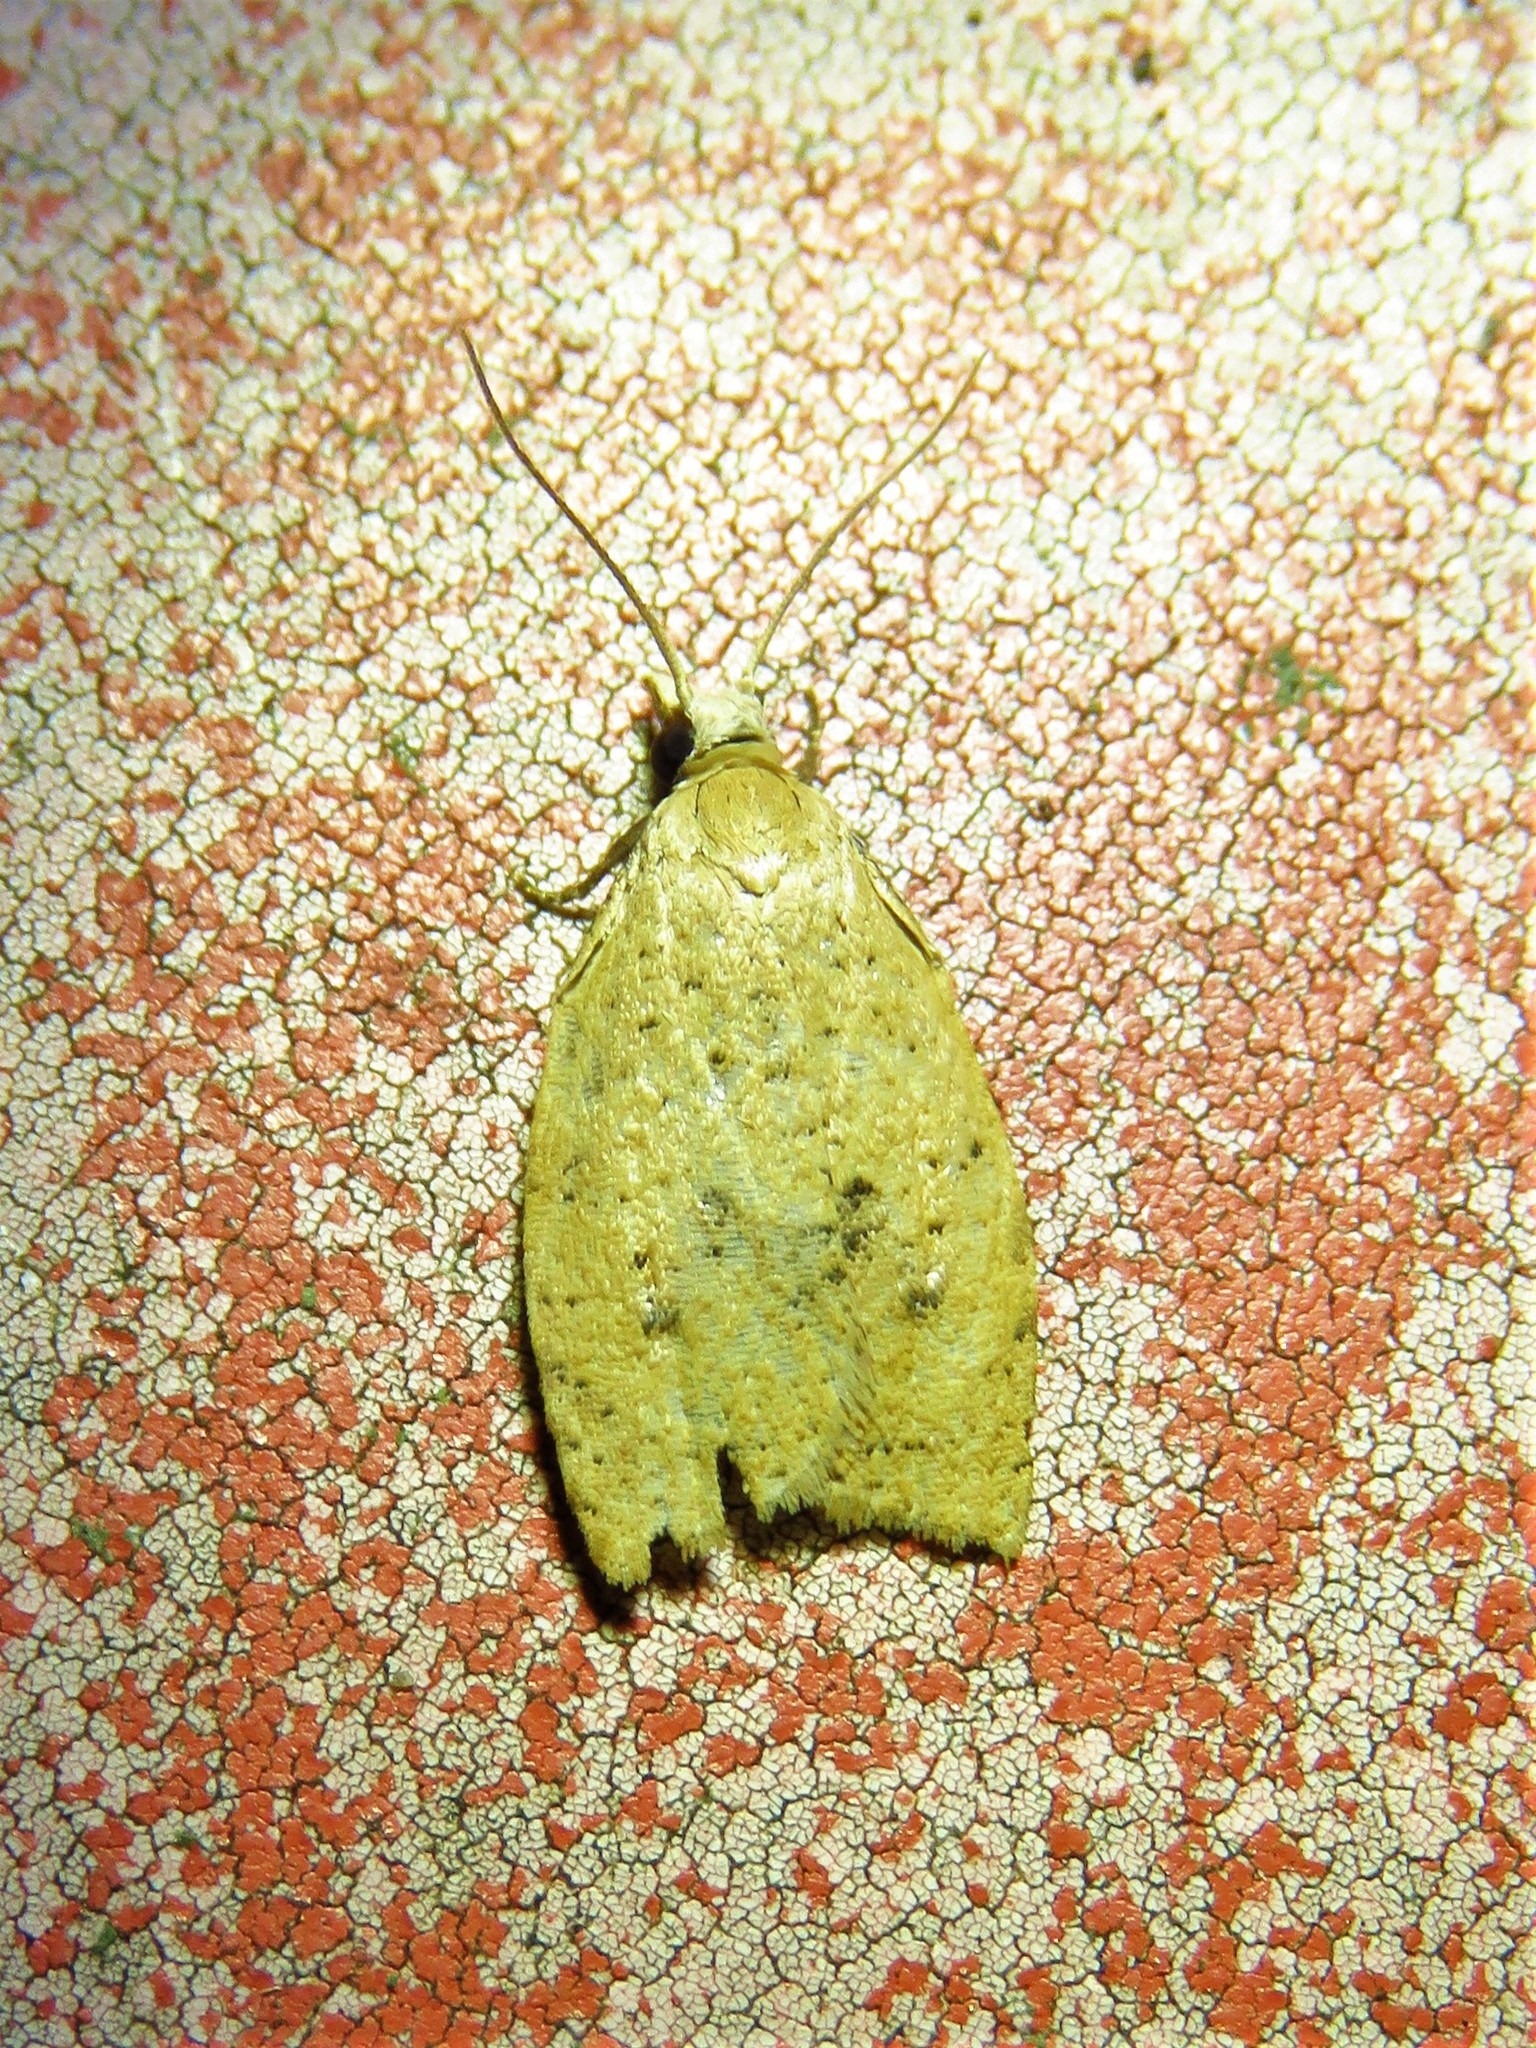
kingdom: Animalia
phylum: Arthropoda
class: Insecta
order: Lepidoptera
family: Tortricidae
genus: Sparganothoides
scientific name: Sparganothoides lentiginosana
